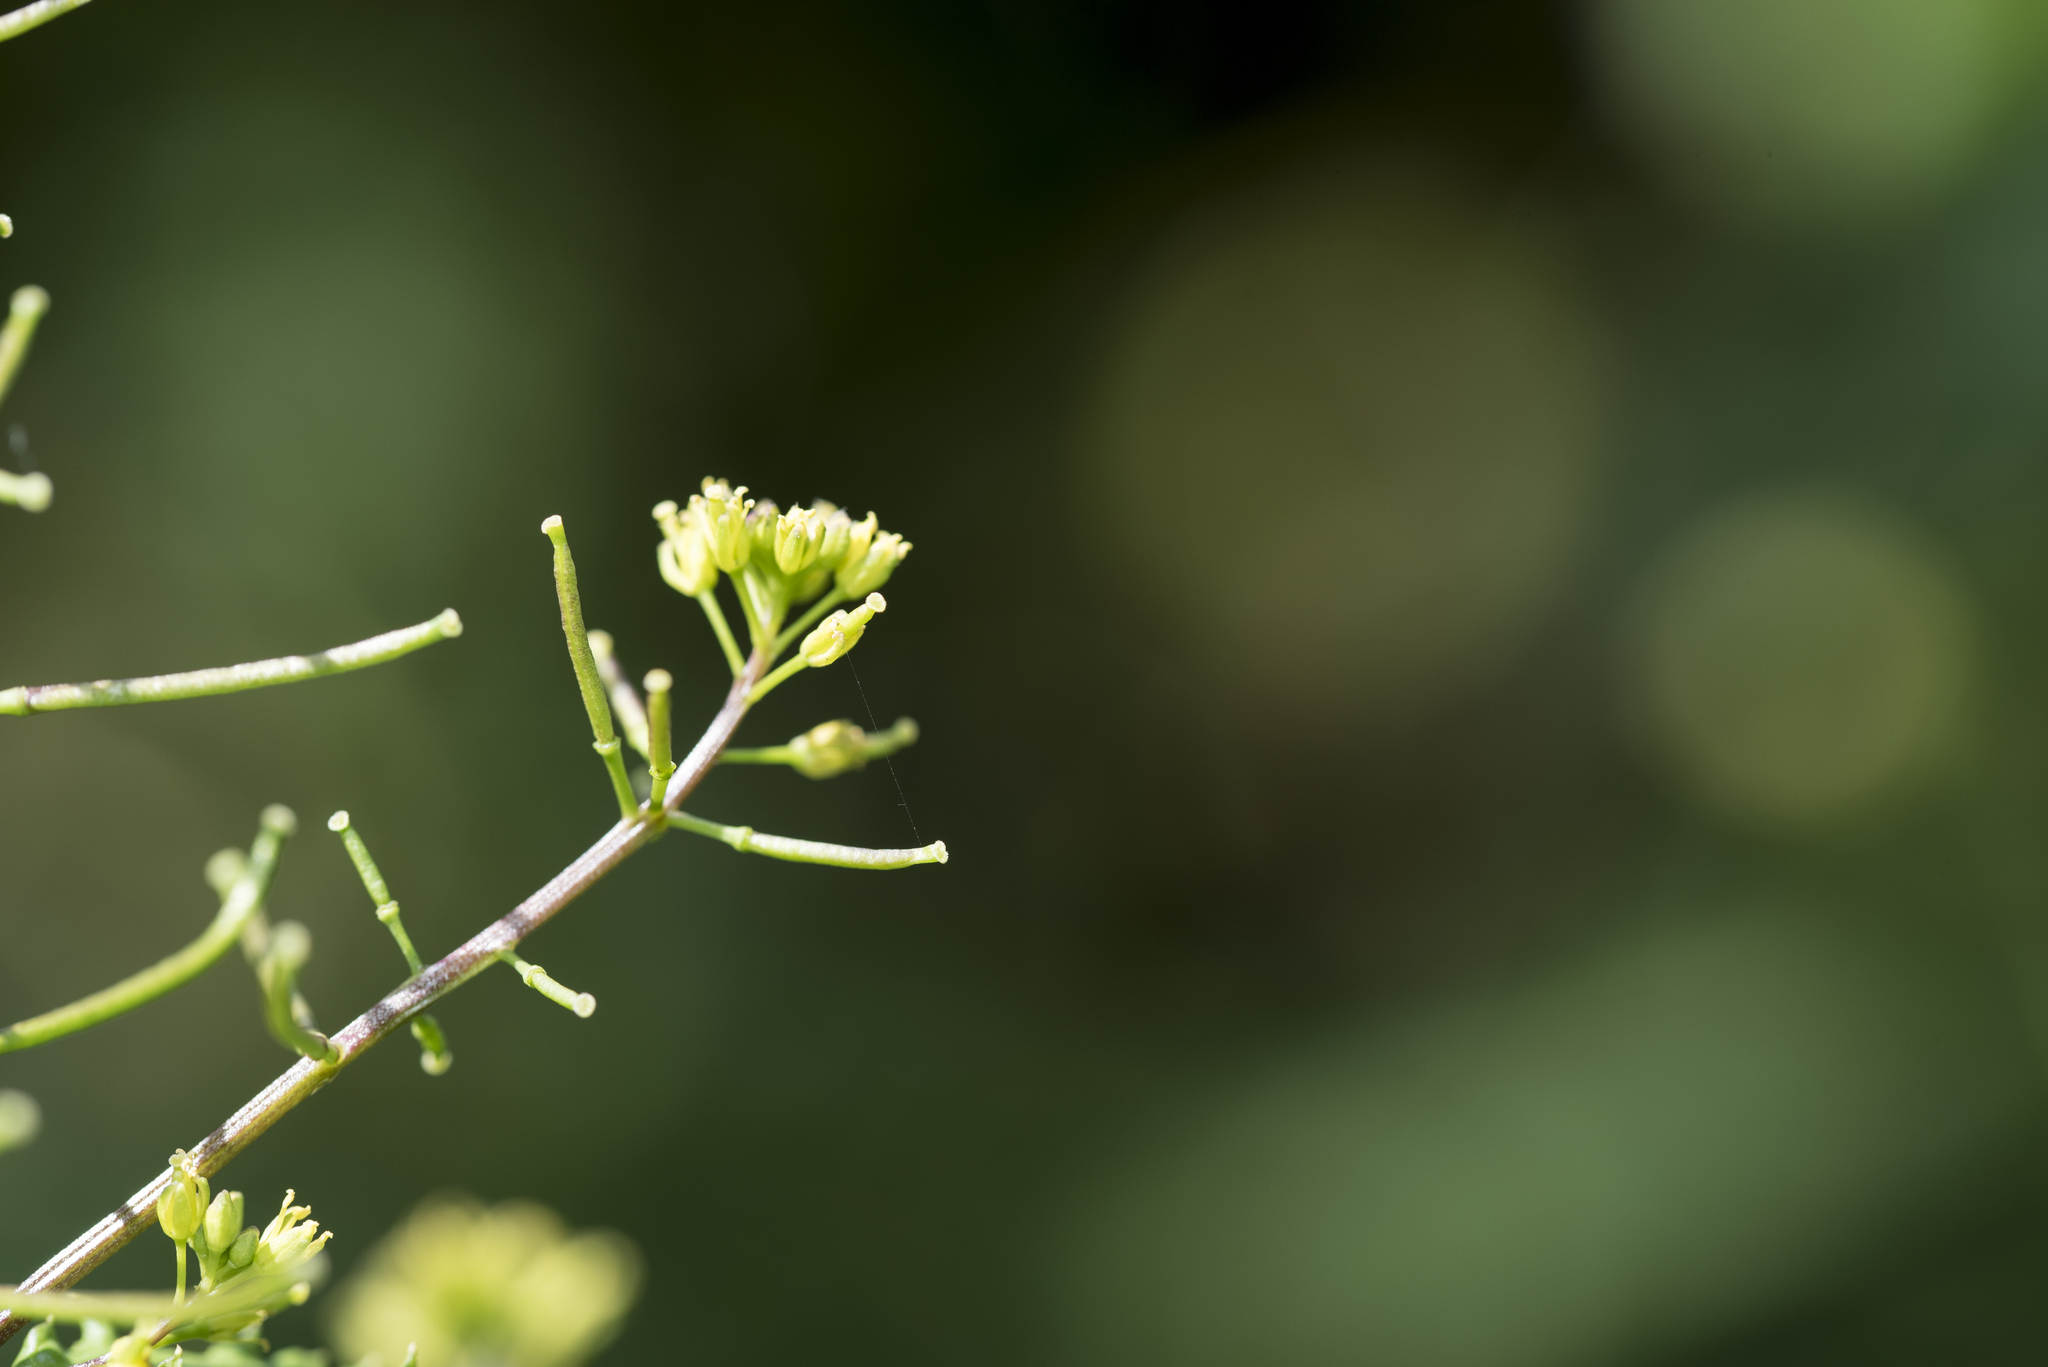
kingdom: Plantae
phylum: Tracheophyta
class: Magnoliopsida
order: Brassicales
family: Brassicaceae
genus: Rorippa
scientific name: Rorippa indica
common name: Variableleaf yellowcress
